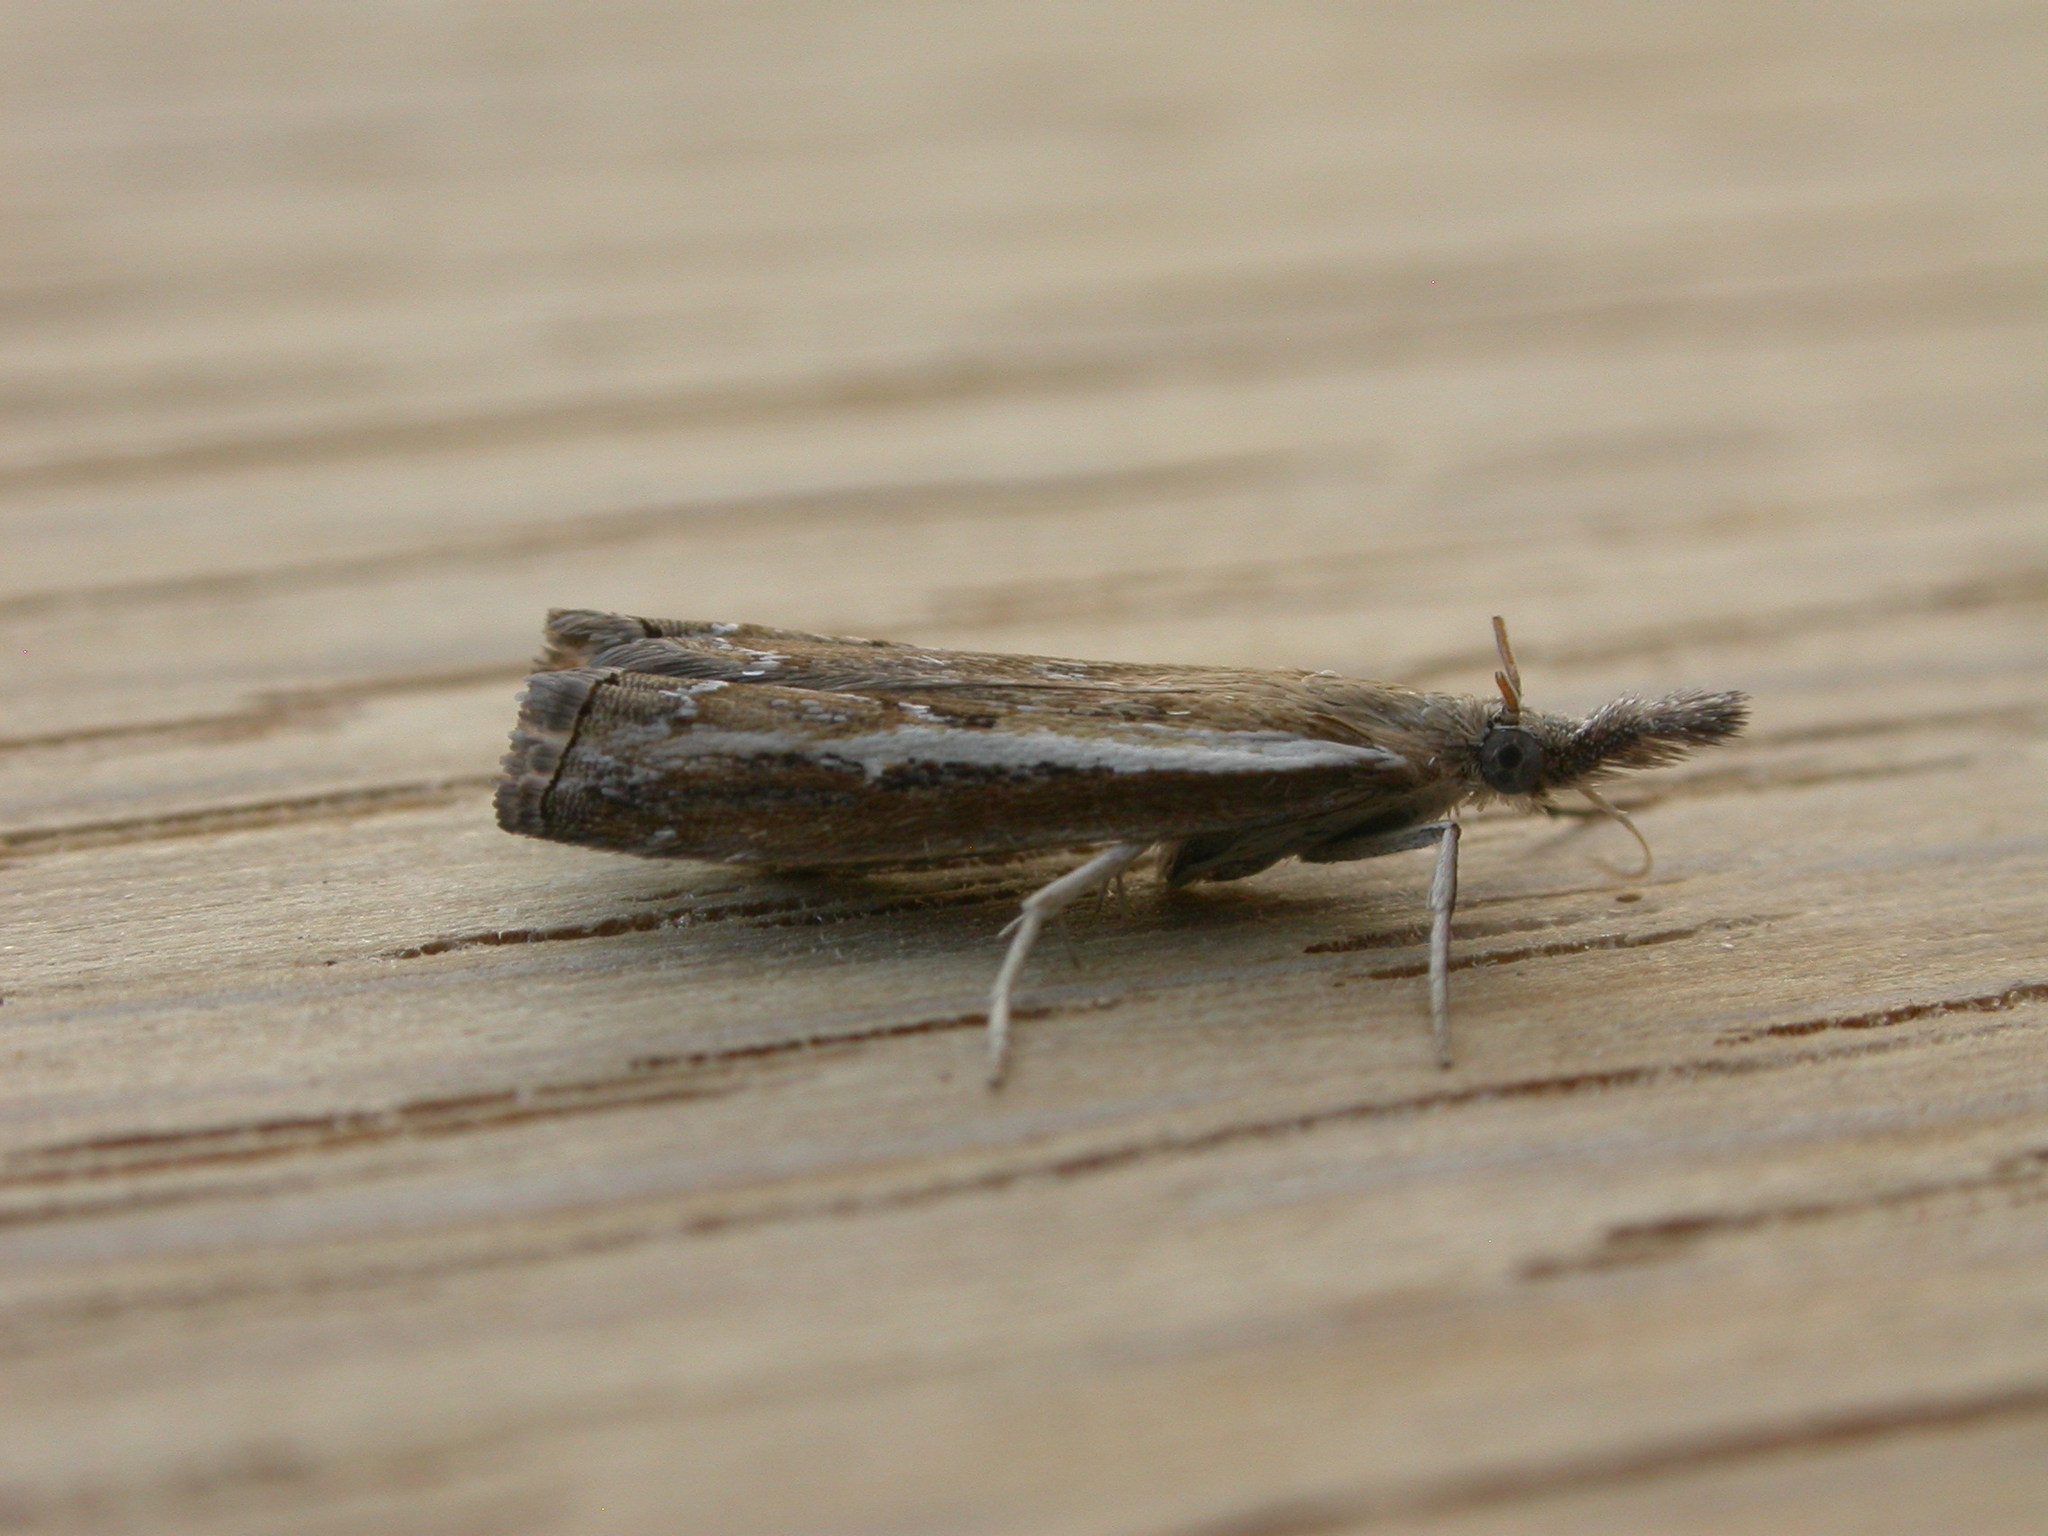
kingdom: Animalia
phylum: Arthropoda
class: Insecta
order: Lepidoptera
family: Crambidae
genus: Ptochostola
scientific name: Ptochostola microphaeellus
